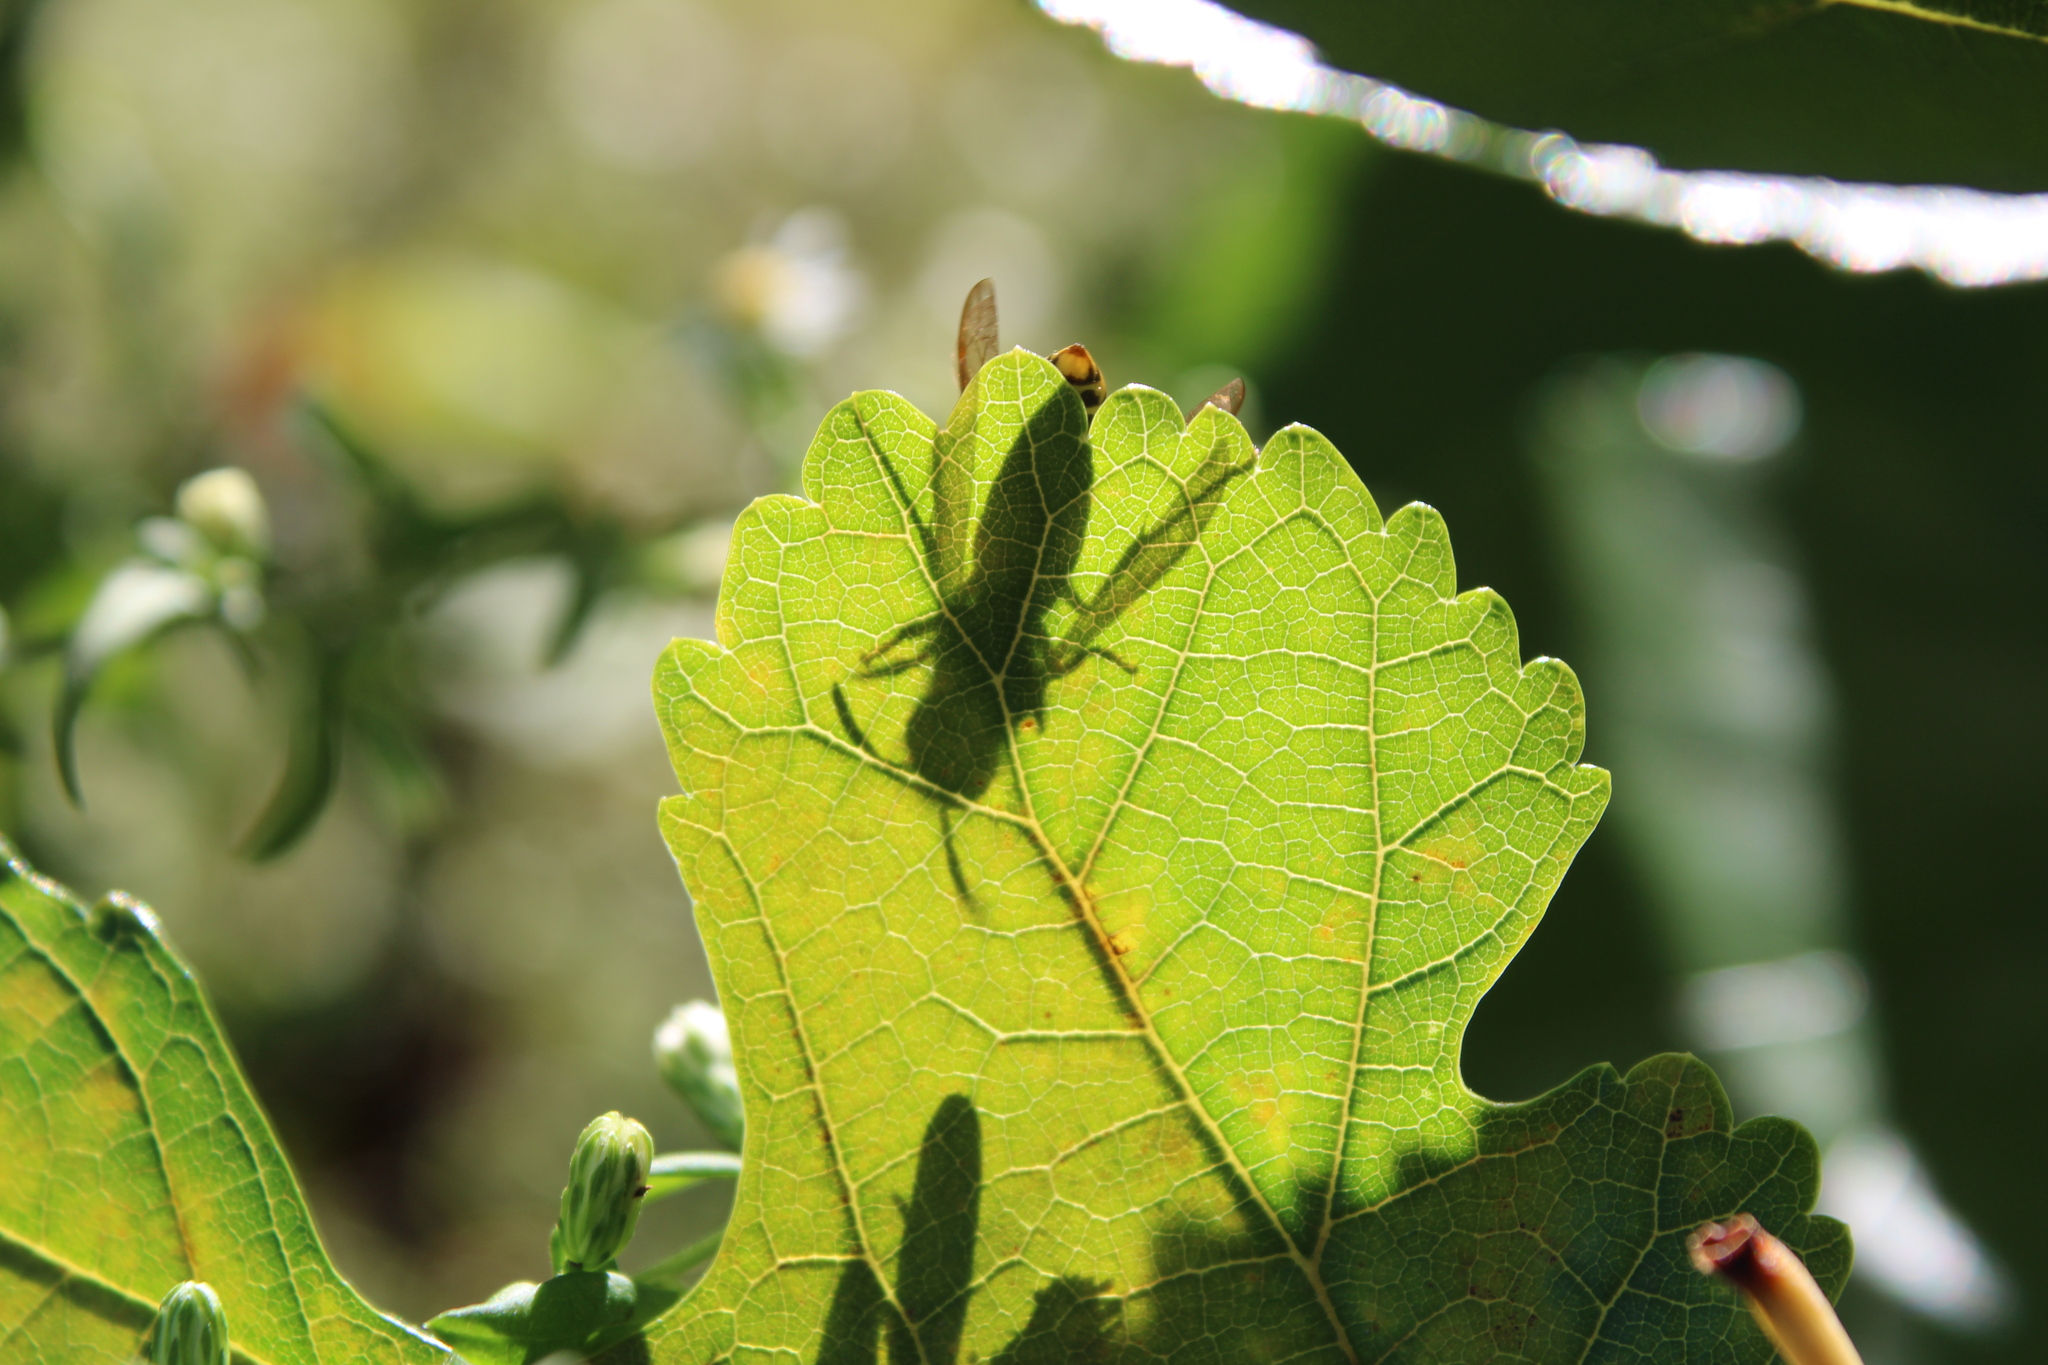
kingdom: Animalia
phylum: Arthropoda
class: Insecta
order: Hymenoptera
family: Vespidae
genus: Vespula
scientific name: Vespula maculifrons
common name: Eastern yellowjacket
